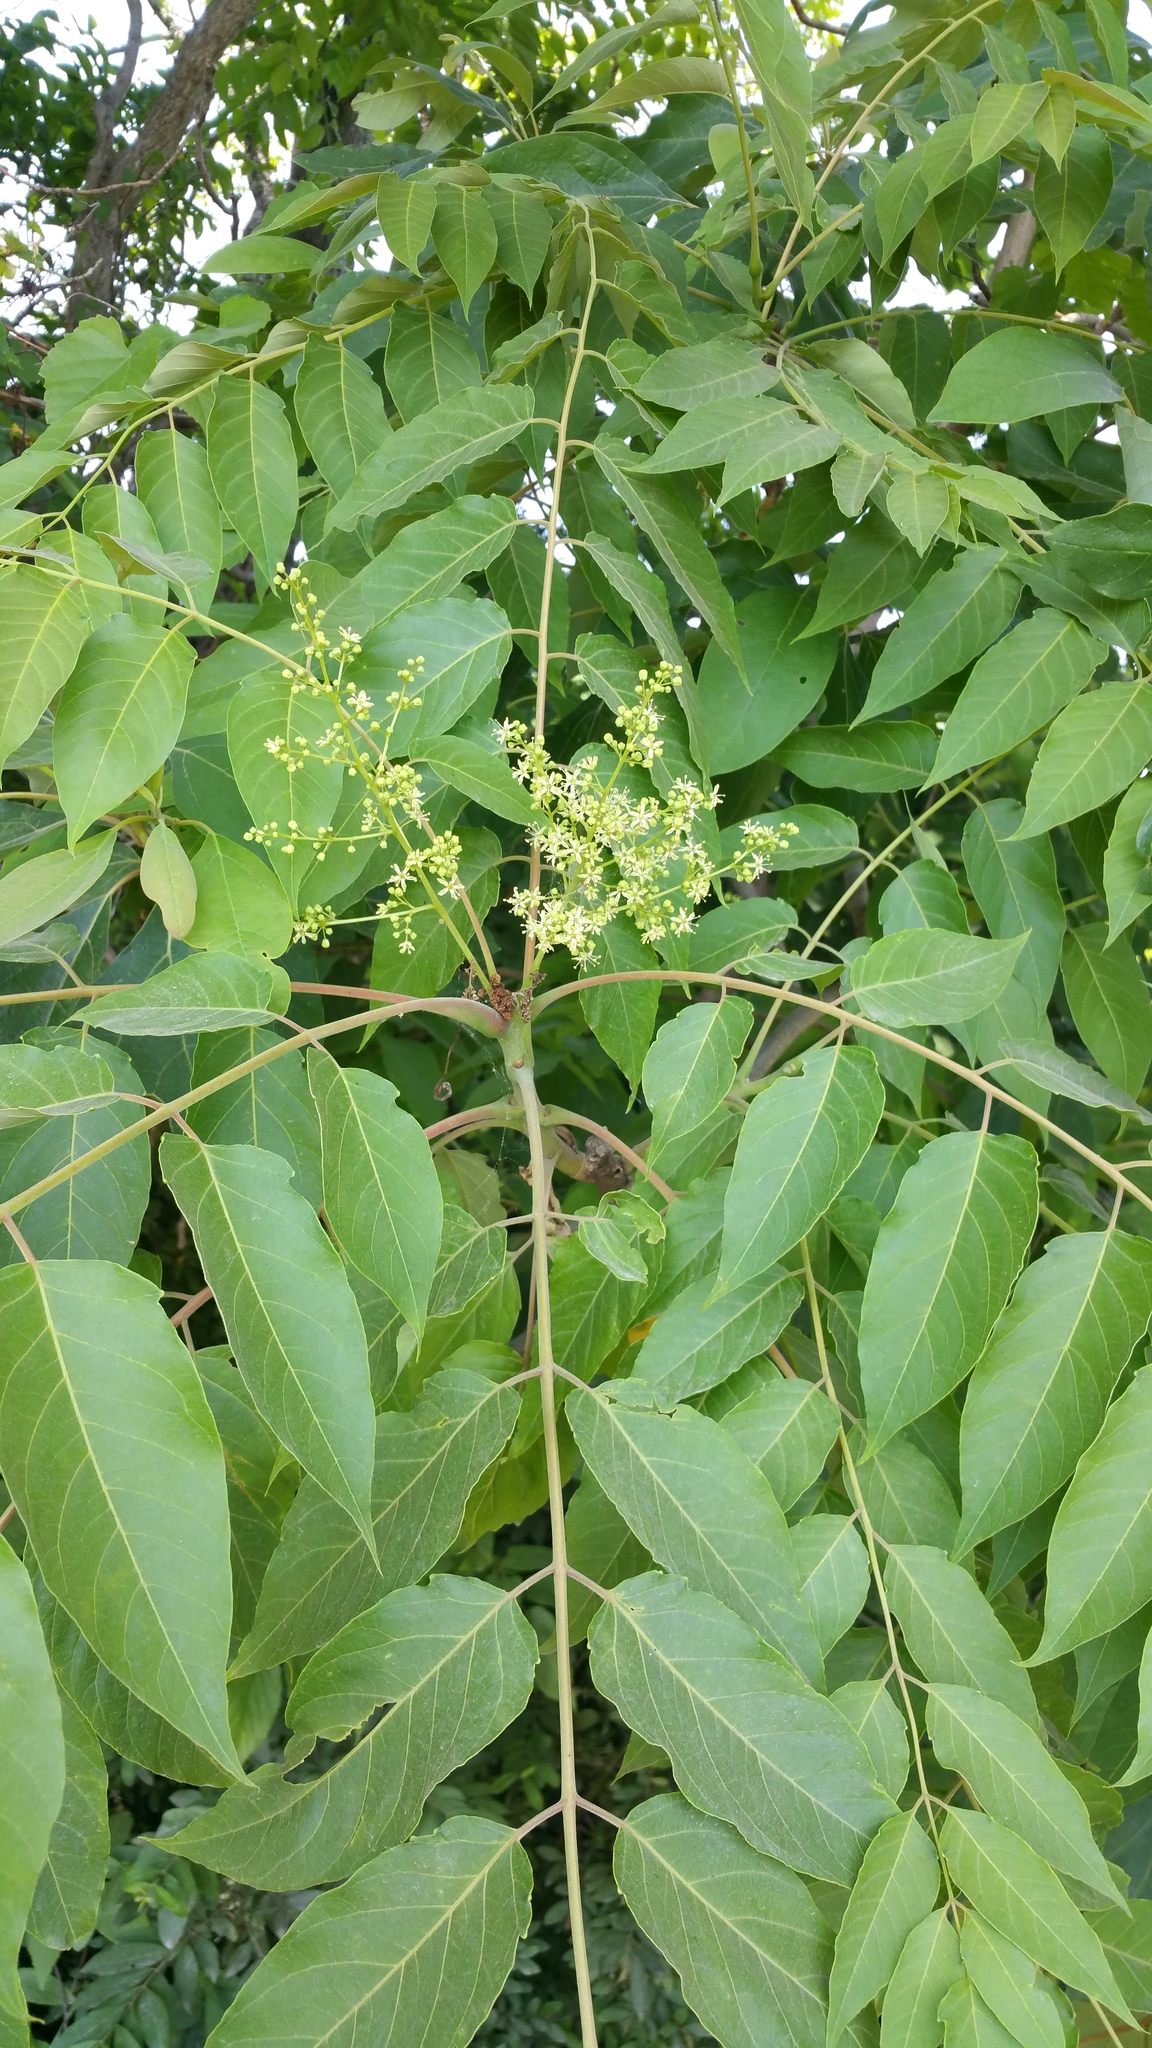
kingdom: Plantae
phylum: Tracheophyta
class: Magnoliopsida
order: Sapindales
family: Simaroubaceae
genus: Ailanthus
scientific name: Ailanthus altissima
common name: Tree-of-heaven
